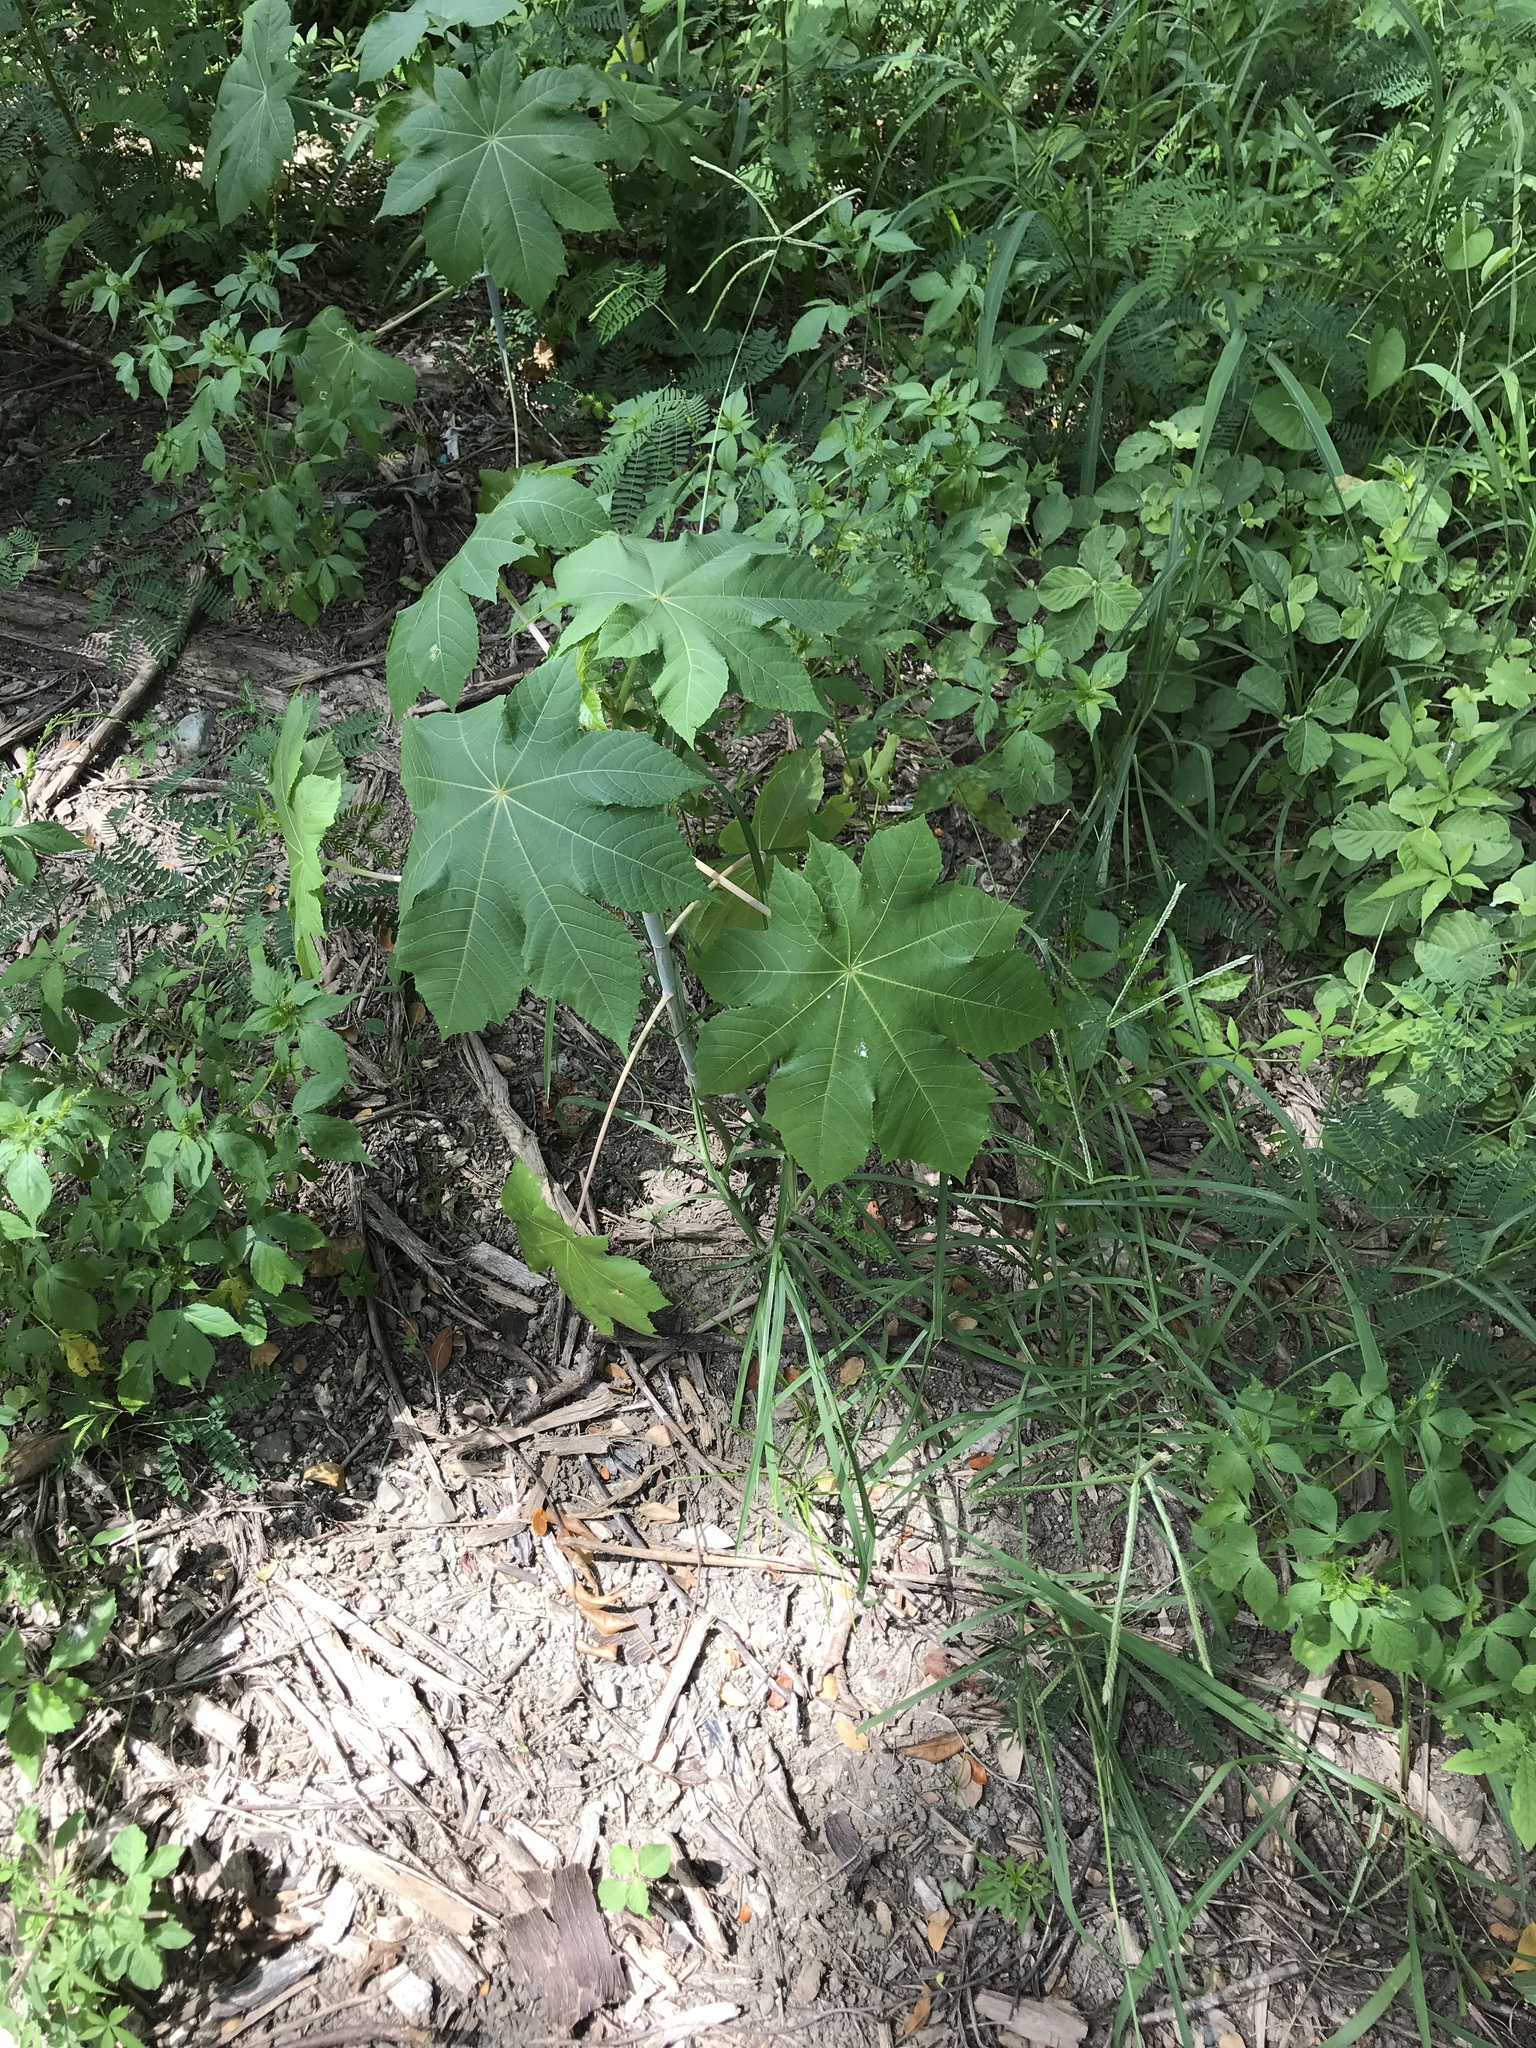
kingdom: Plantae
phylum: Tracheophyta
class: Magnoliopsida
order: Malpighiales
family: Euphorbiaceae
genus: Ricinus
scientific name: Ricinus communis
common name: Castor-oil-plant
